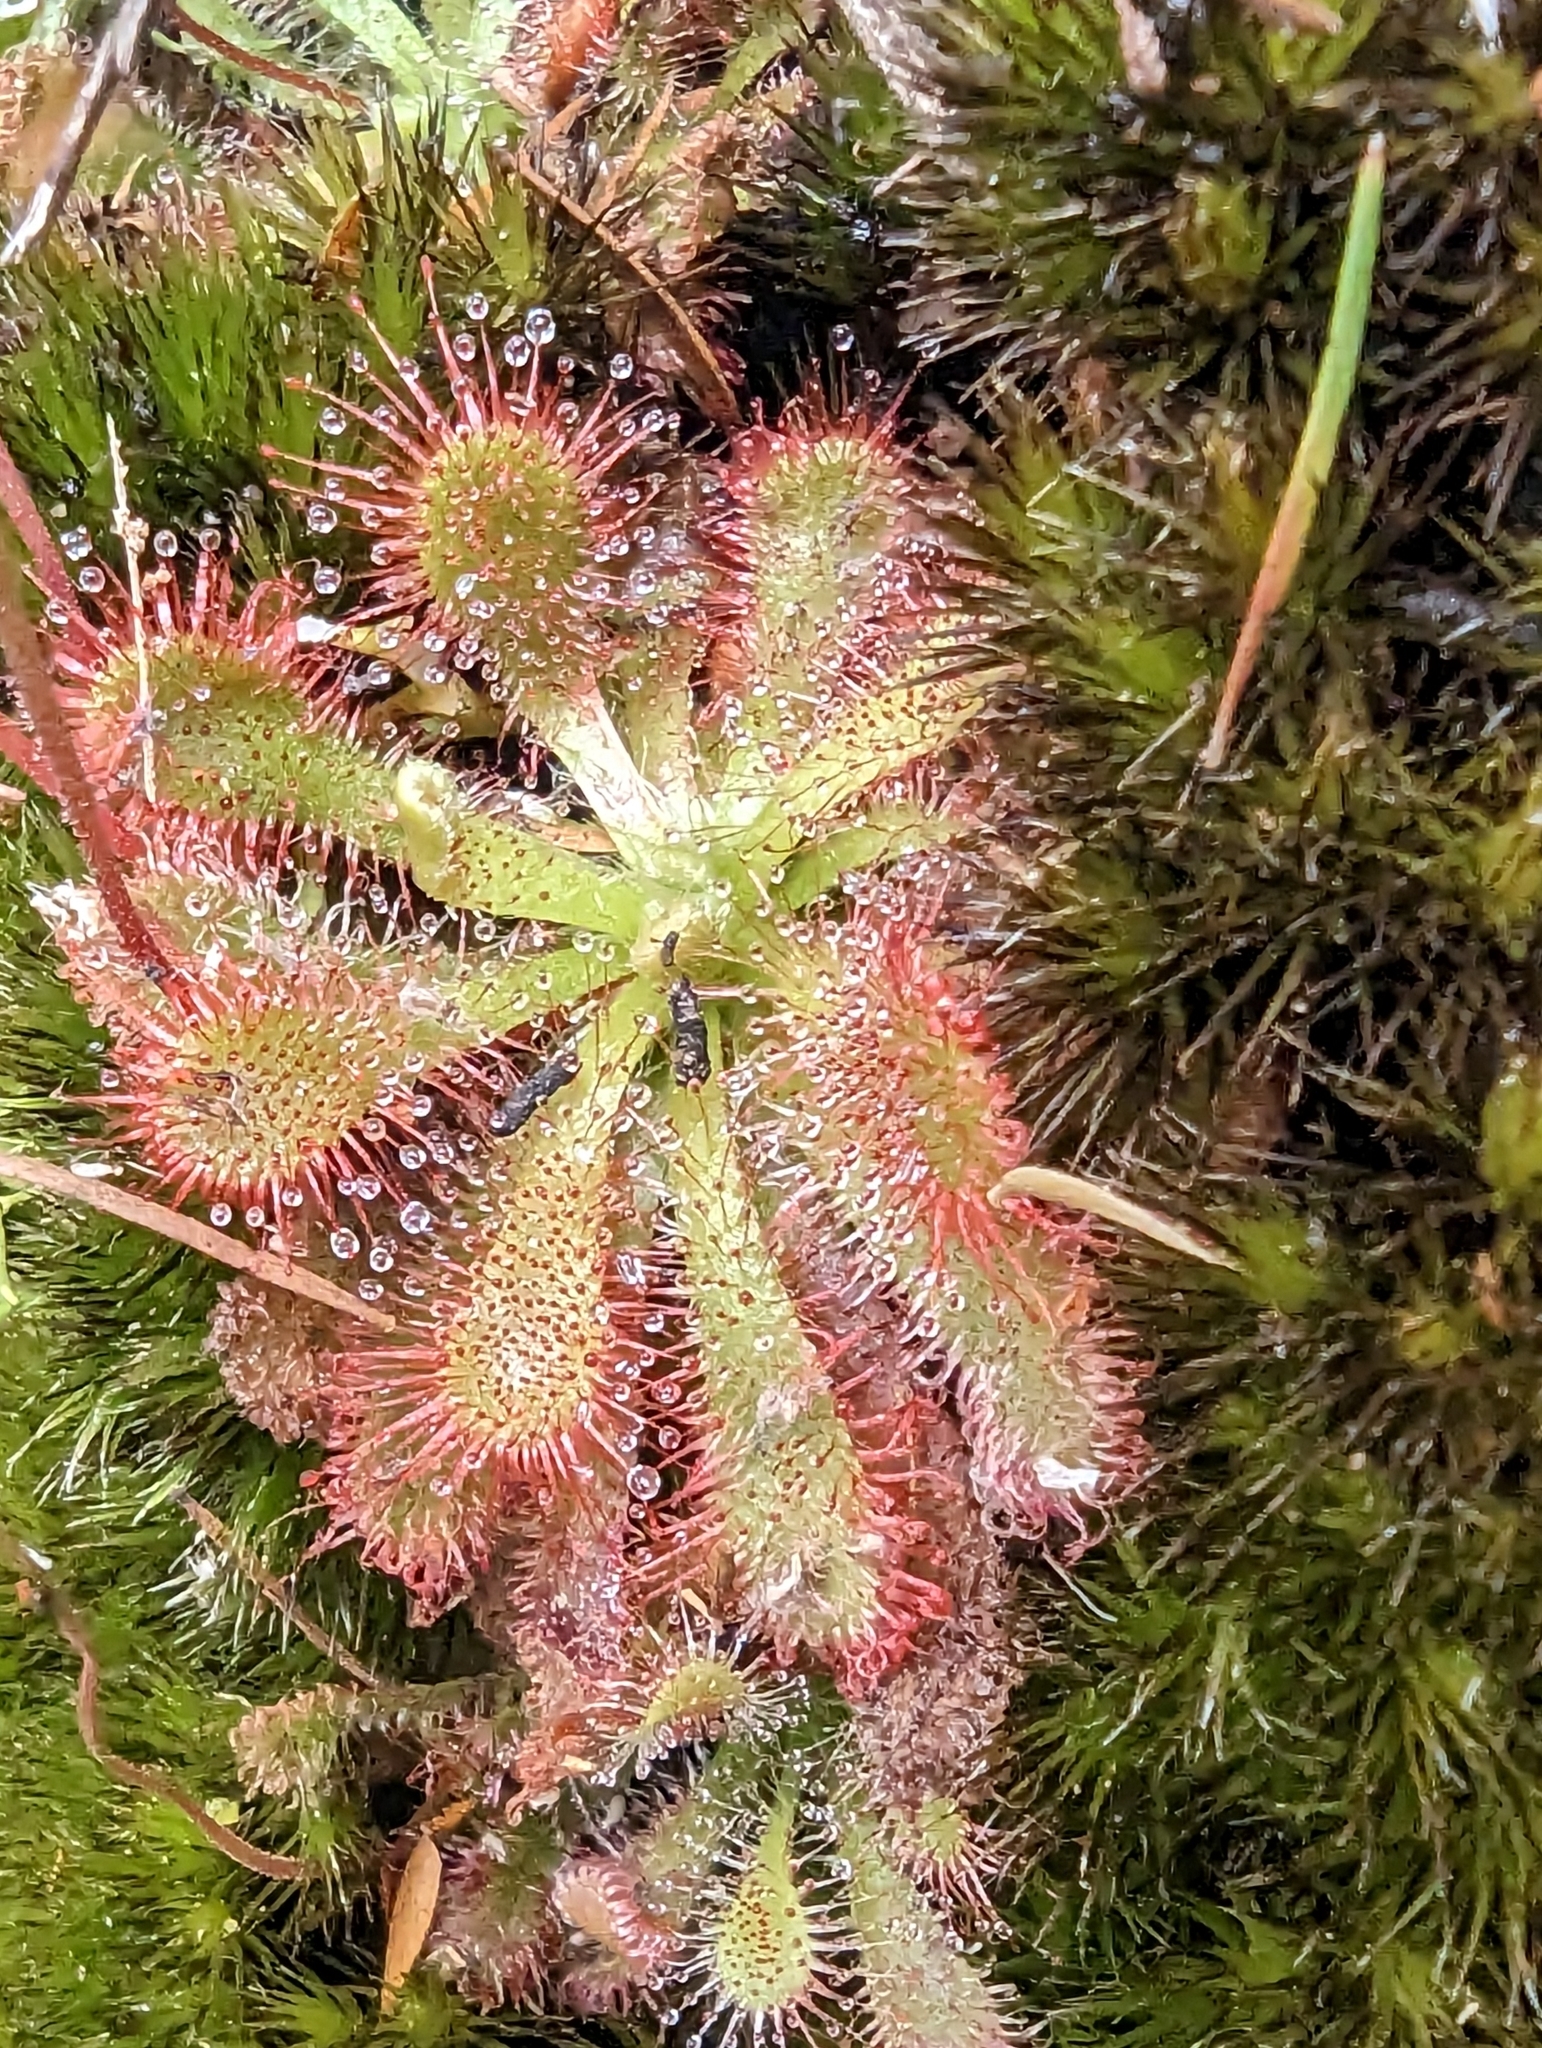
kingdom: Plantae
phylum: Tracheophyta
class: Magnoliopsida
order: Caryophyllales
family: Droseraceae
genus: Drosera
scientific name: Drosera spatulata
